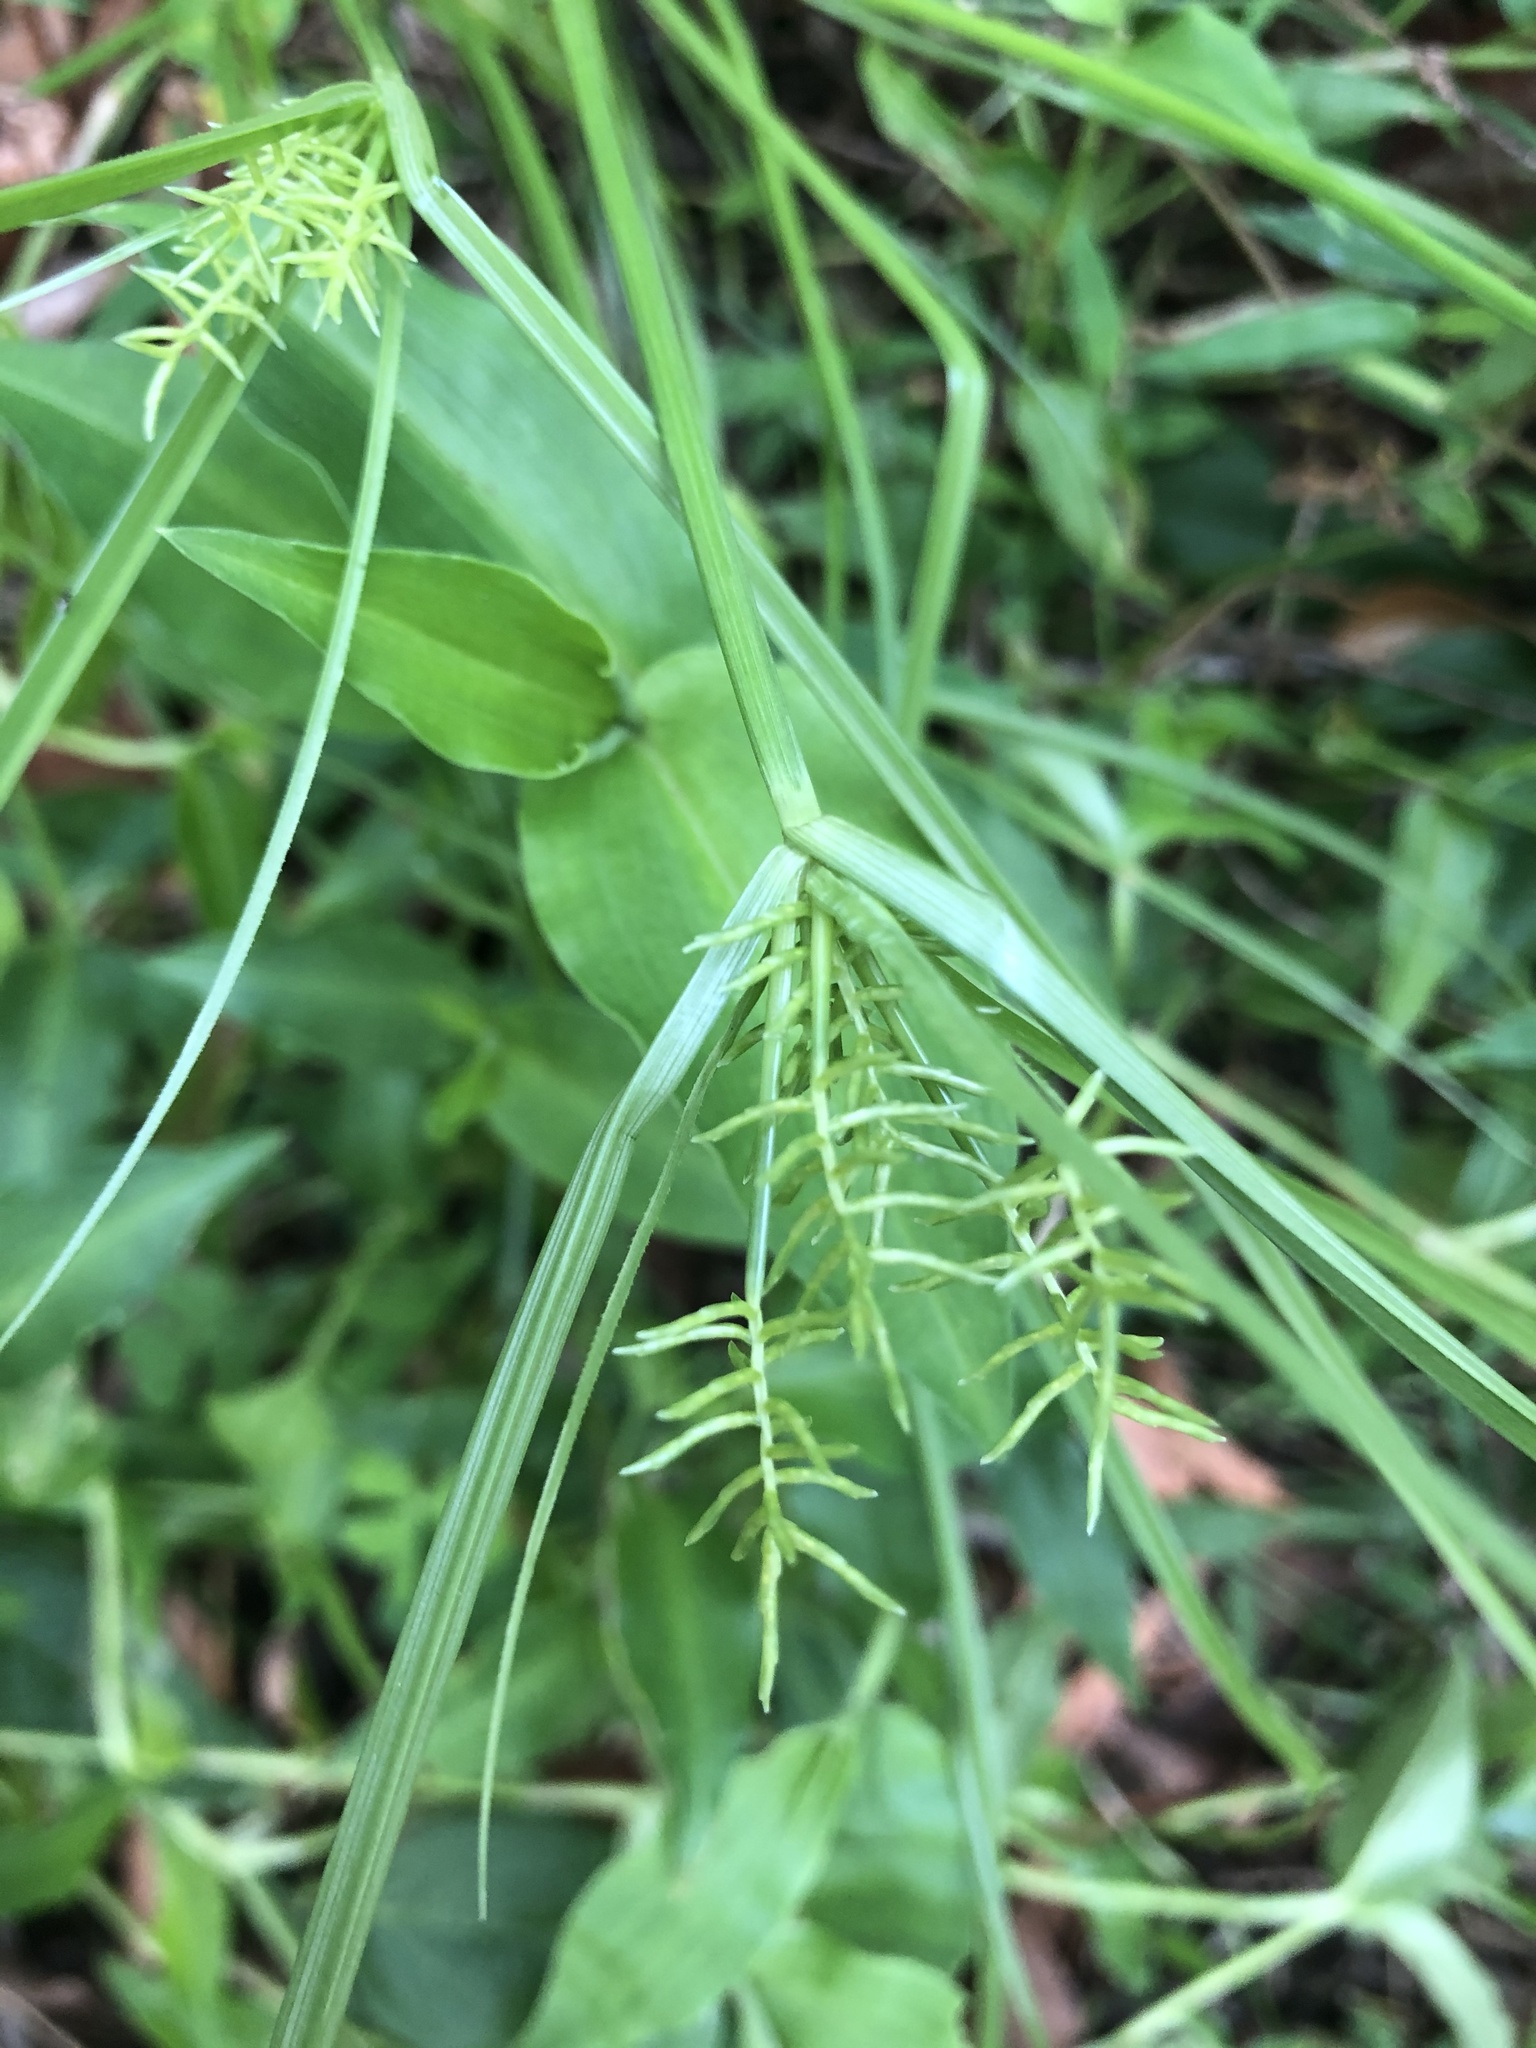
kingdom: Plantae
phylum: Tracheophyta
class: Liliopsida
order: Poales
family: Cyperaceae
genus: Cyperus
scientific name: Cyperus bowmanni
